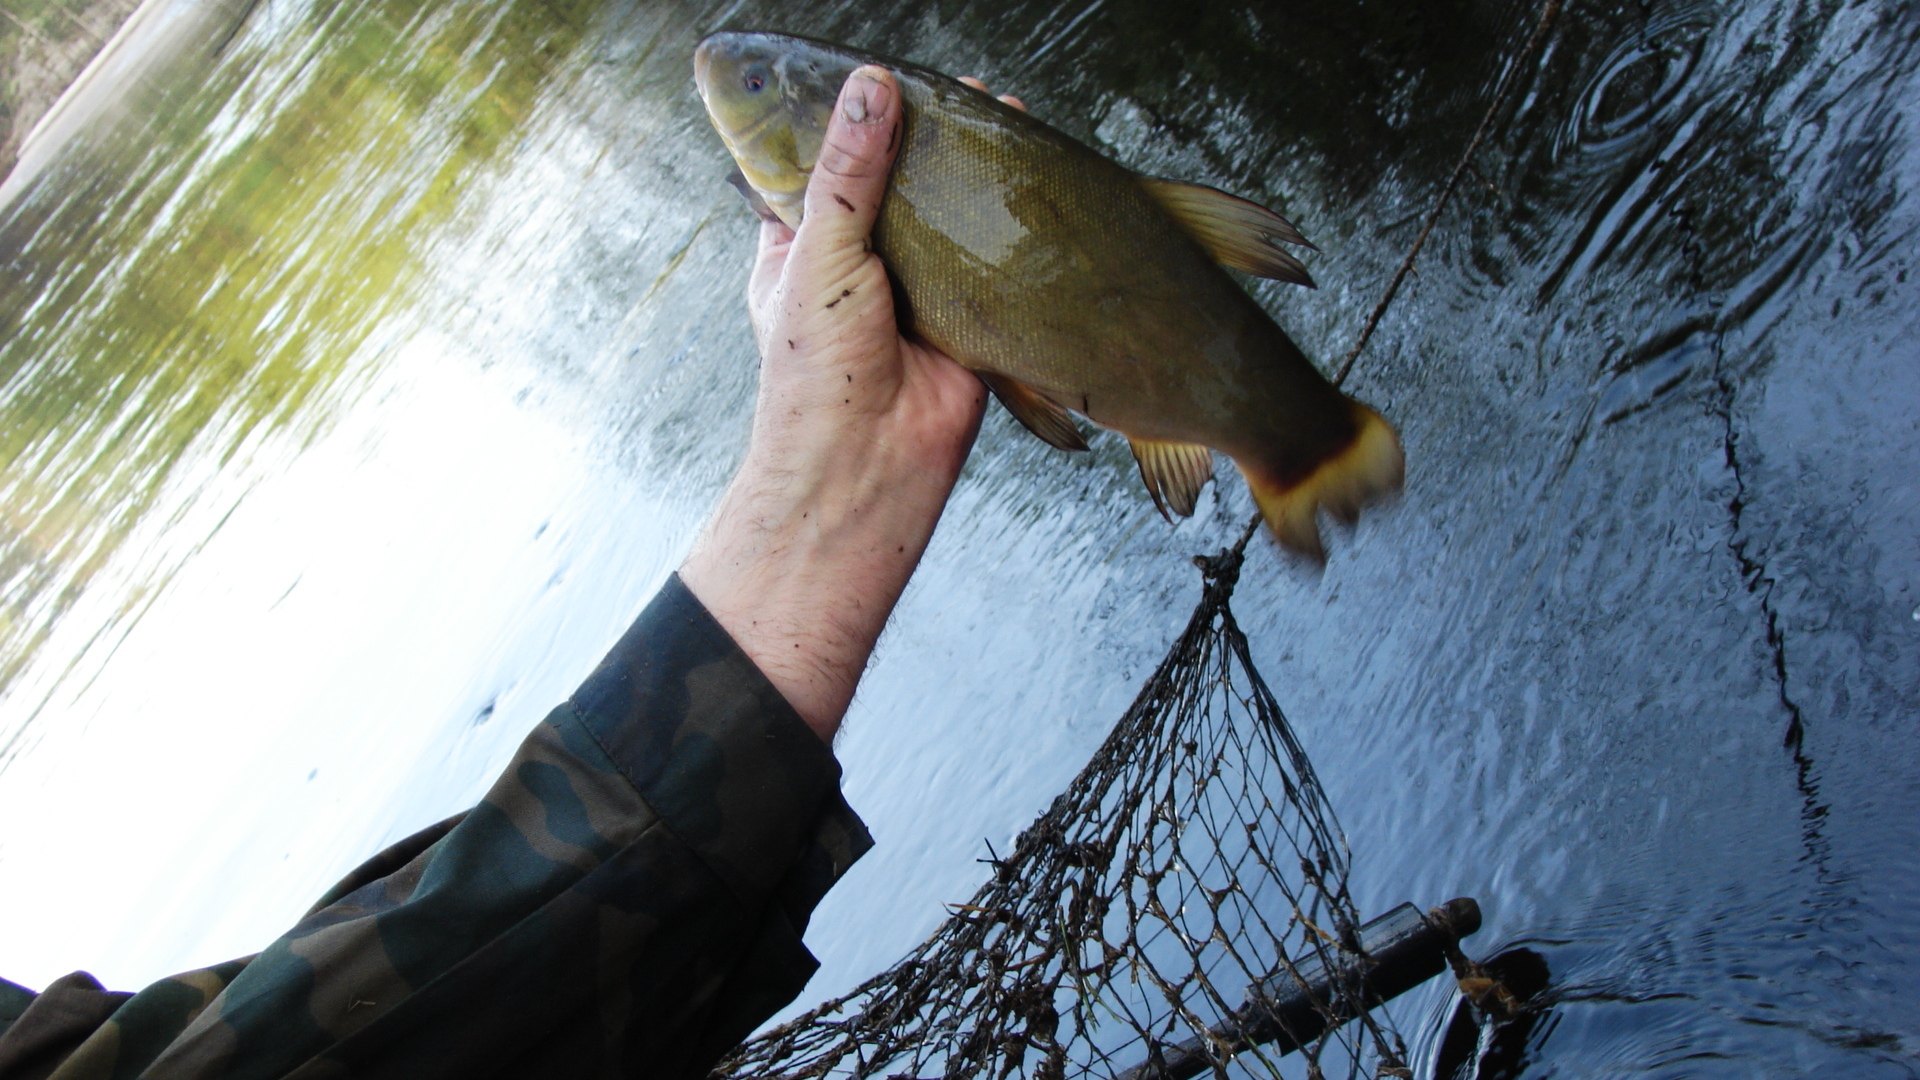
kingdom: Animalia
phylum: Chordata
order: Cypriniformes
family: Cyprinidae
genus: Tinca
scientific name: Tinca tinca
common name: Tench
